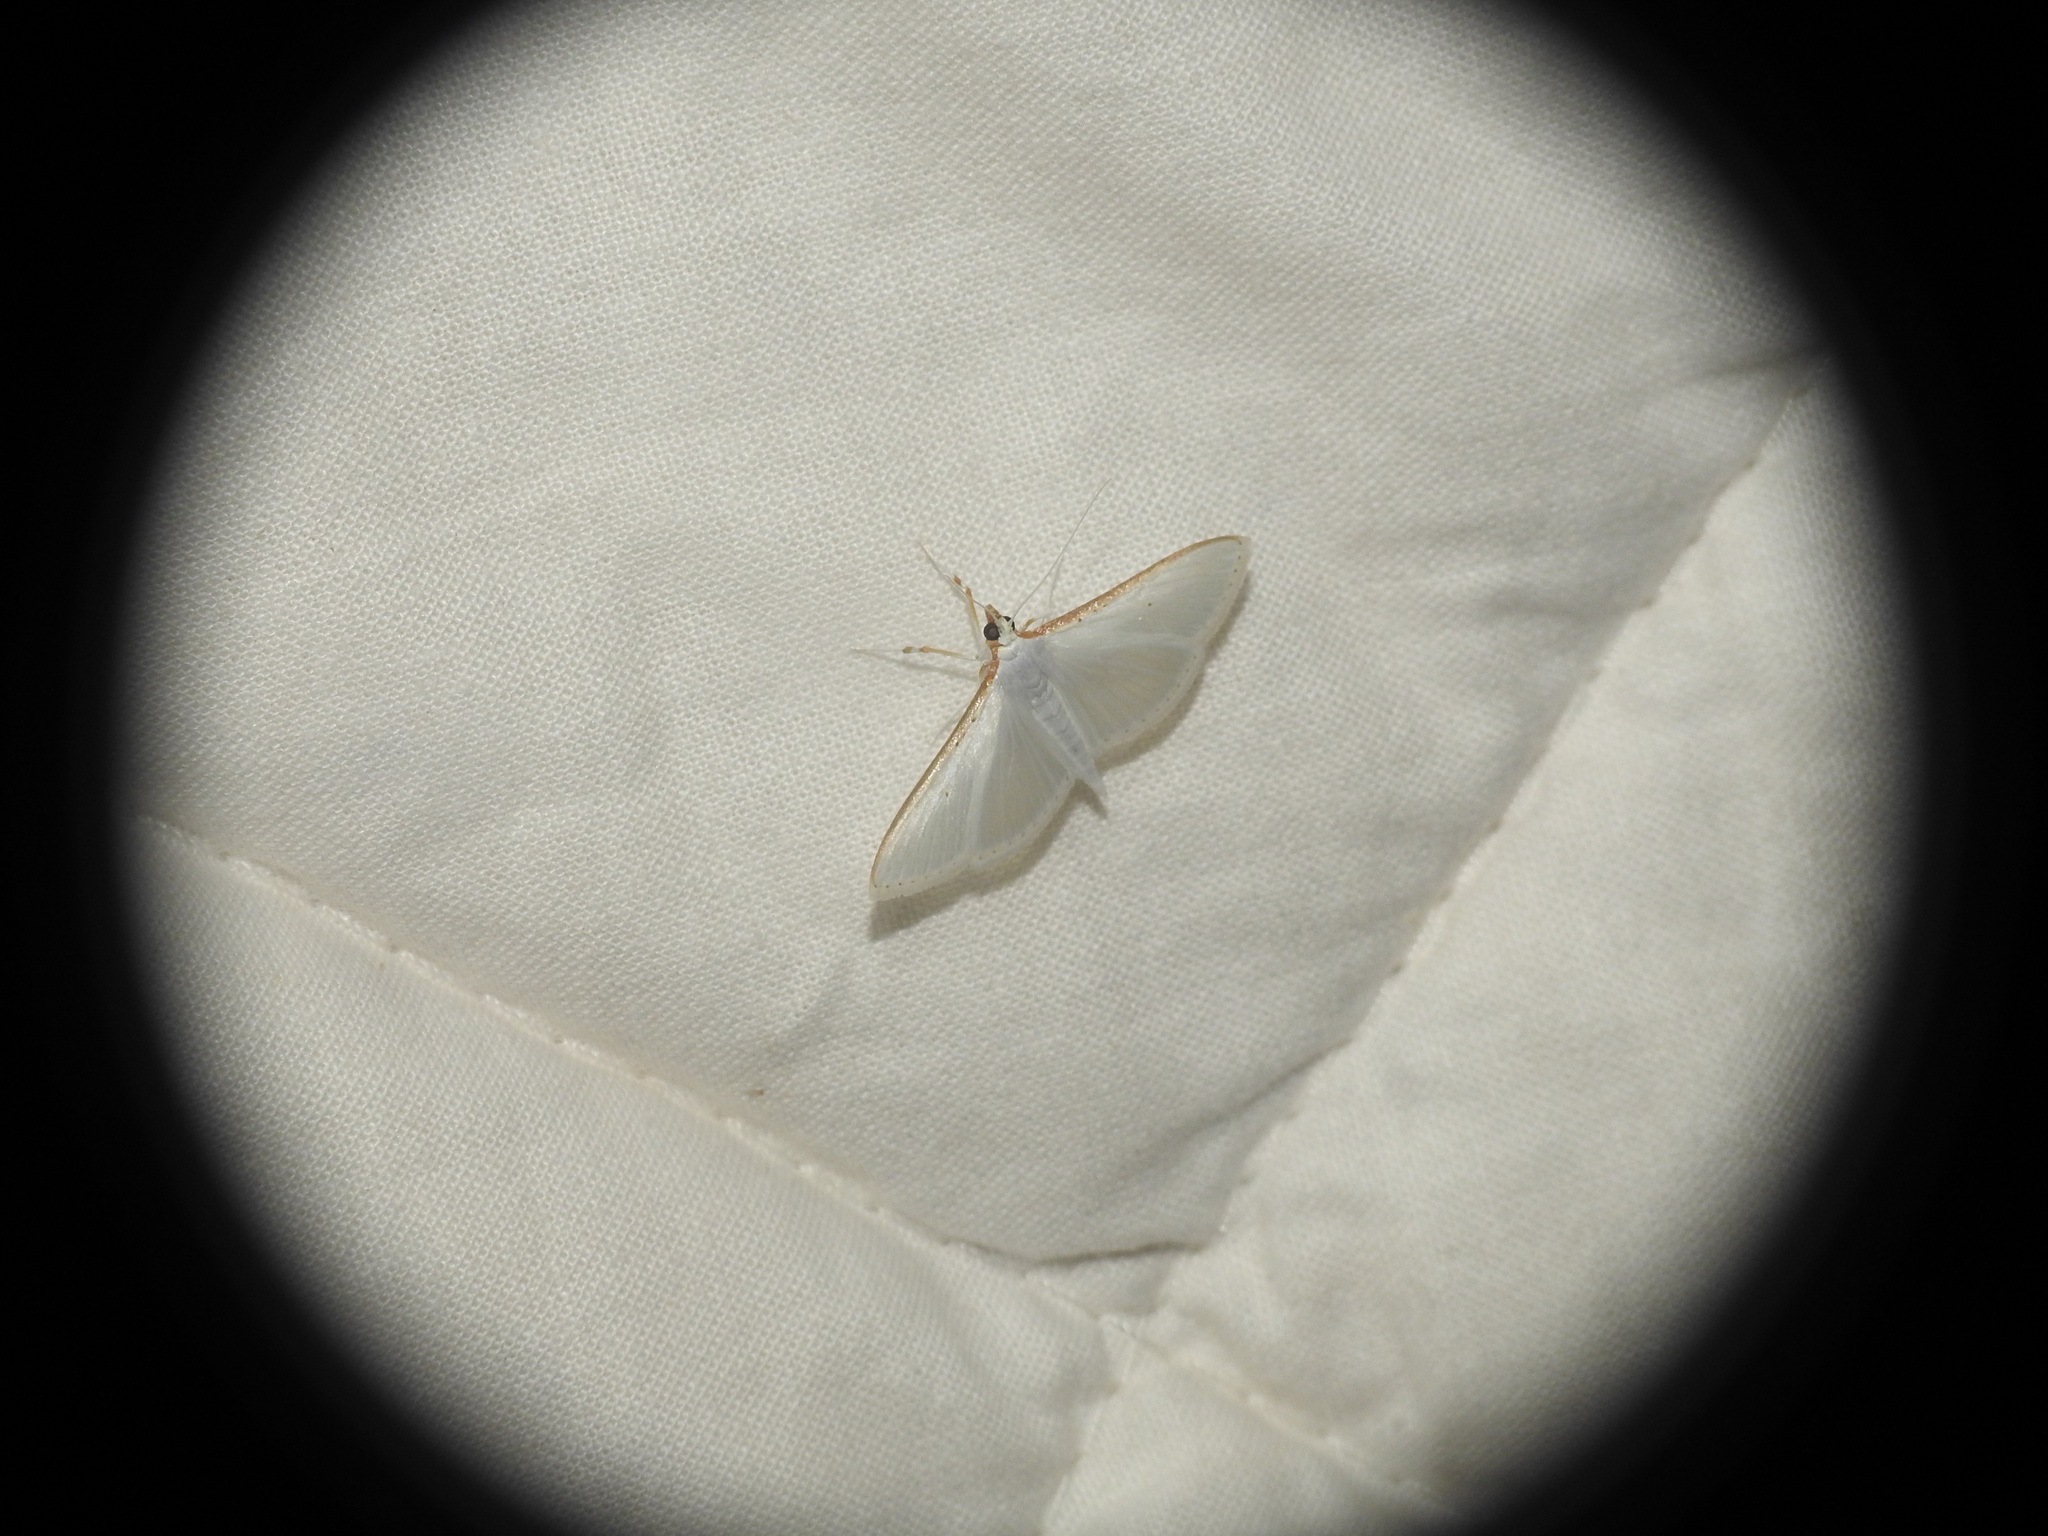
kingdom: Animalia
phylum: Arthropoda
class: Insecta
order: Lepidoptera
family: Crambidae
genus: Palpita
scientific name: Palpita vitrealis
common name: Olive-tree pearl
